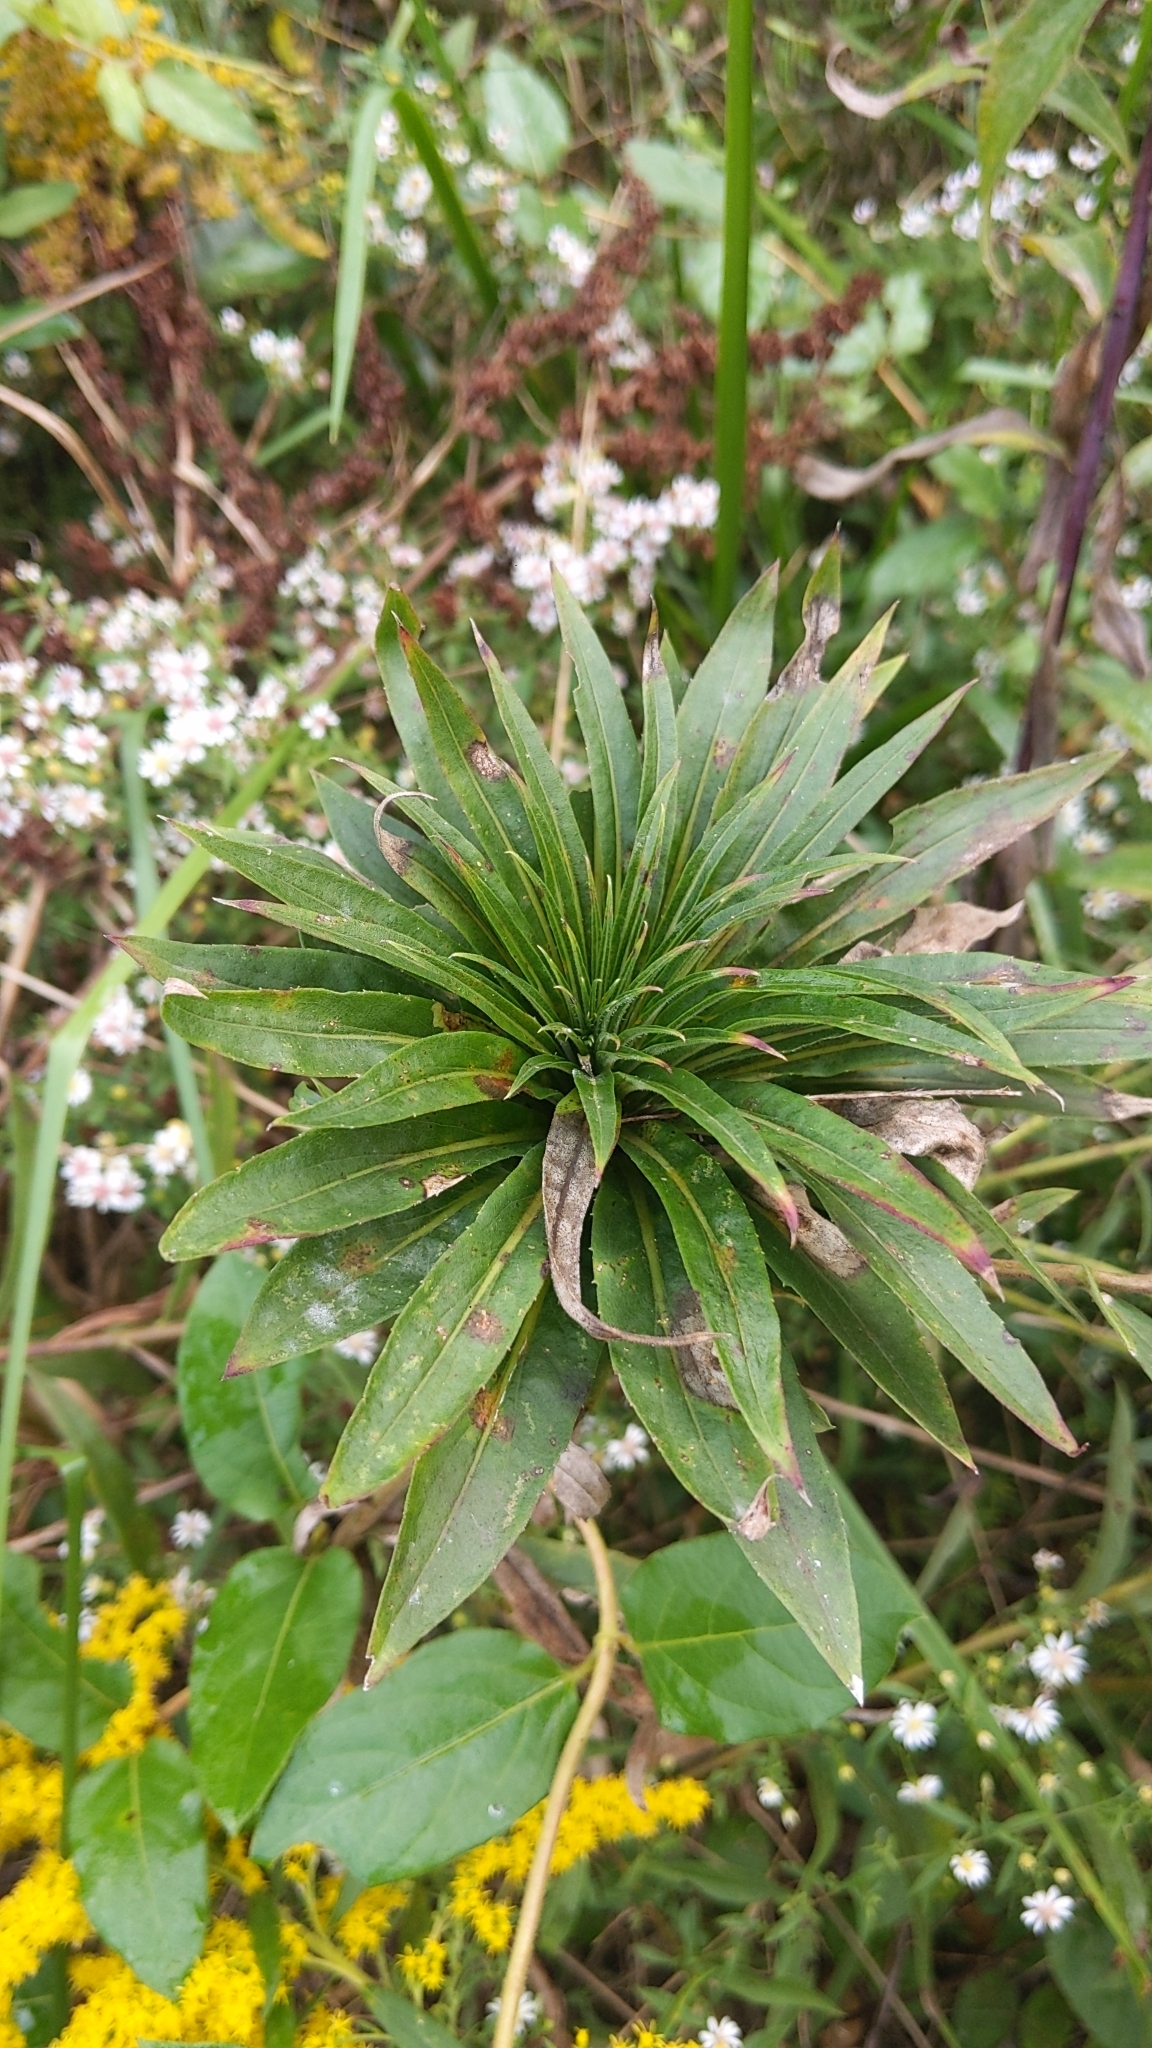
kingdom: Animalia
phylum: Arthropoda
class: Insecta
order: Diptera
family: Cecidomyiidae
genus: Rhopalomyia
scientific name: Rhopalomyia solidaginis
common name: Goldenrod bunch gall midge
